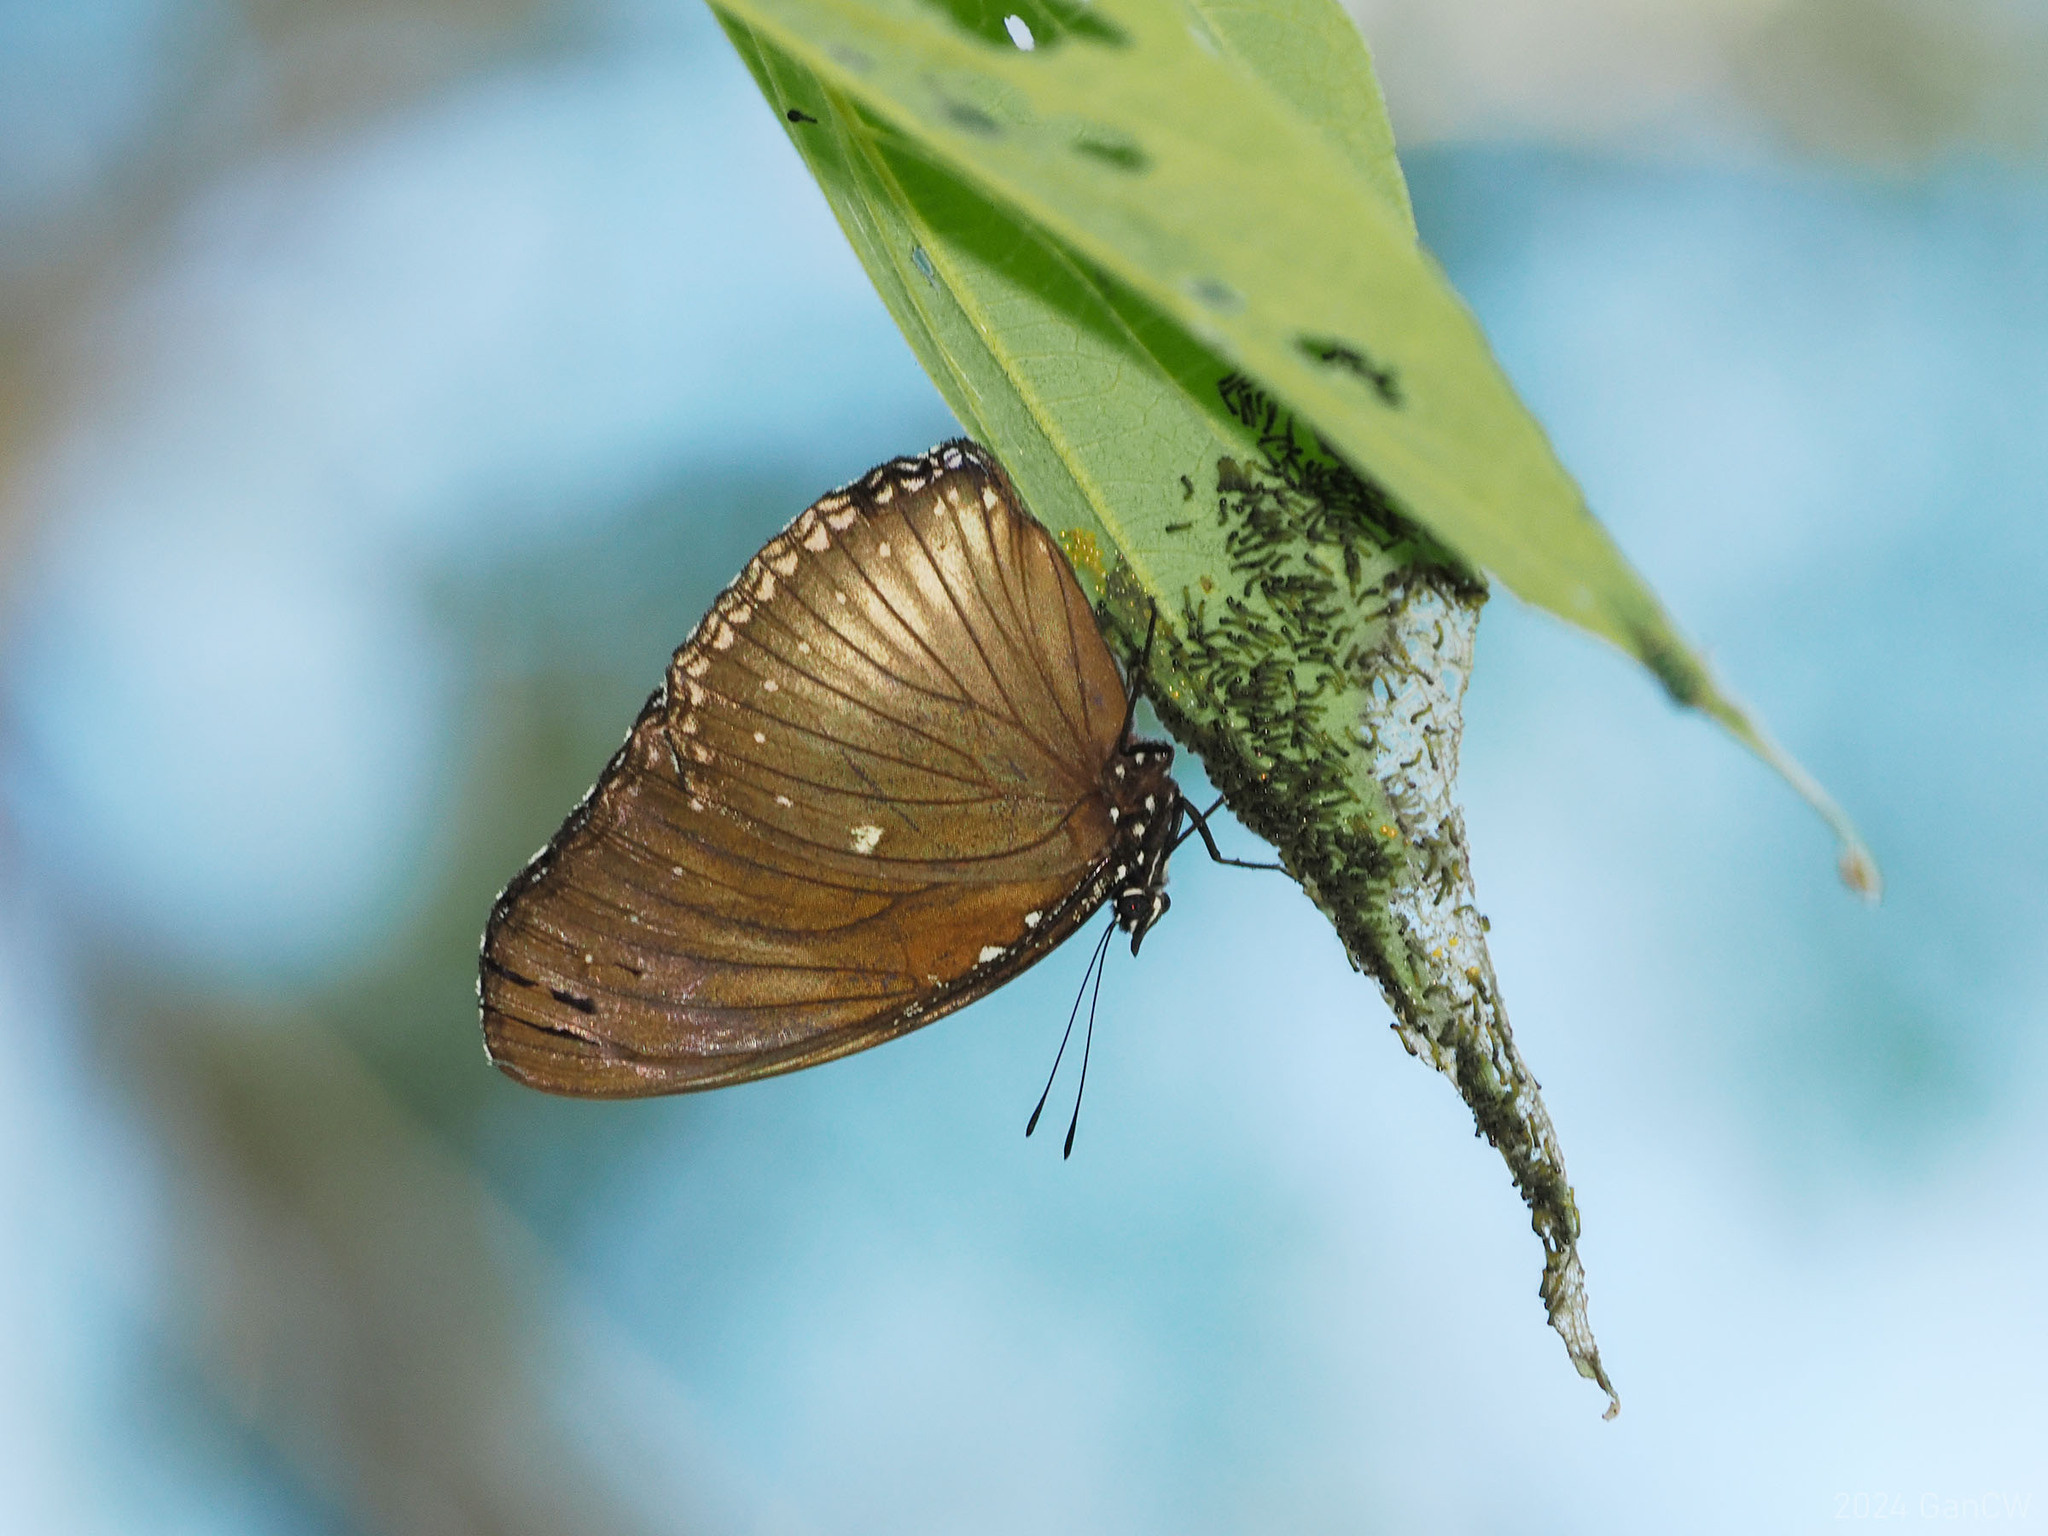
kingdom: Animalia
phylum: Arthropoda
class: Insecta
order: Lepidoptera
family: Nymphalidae
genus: Hypolimnas
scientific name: Hypolimnas anomala
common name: Malayan eggfly
